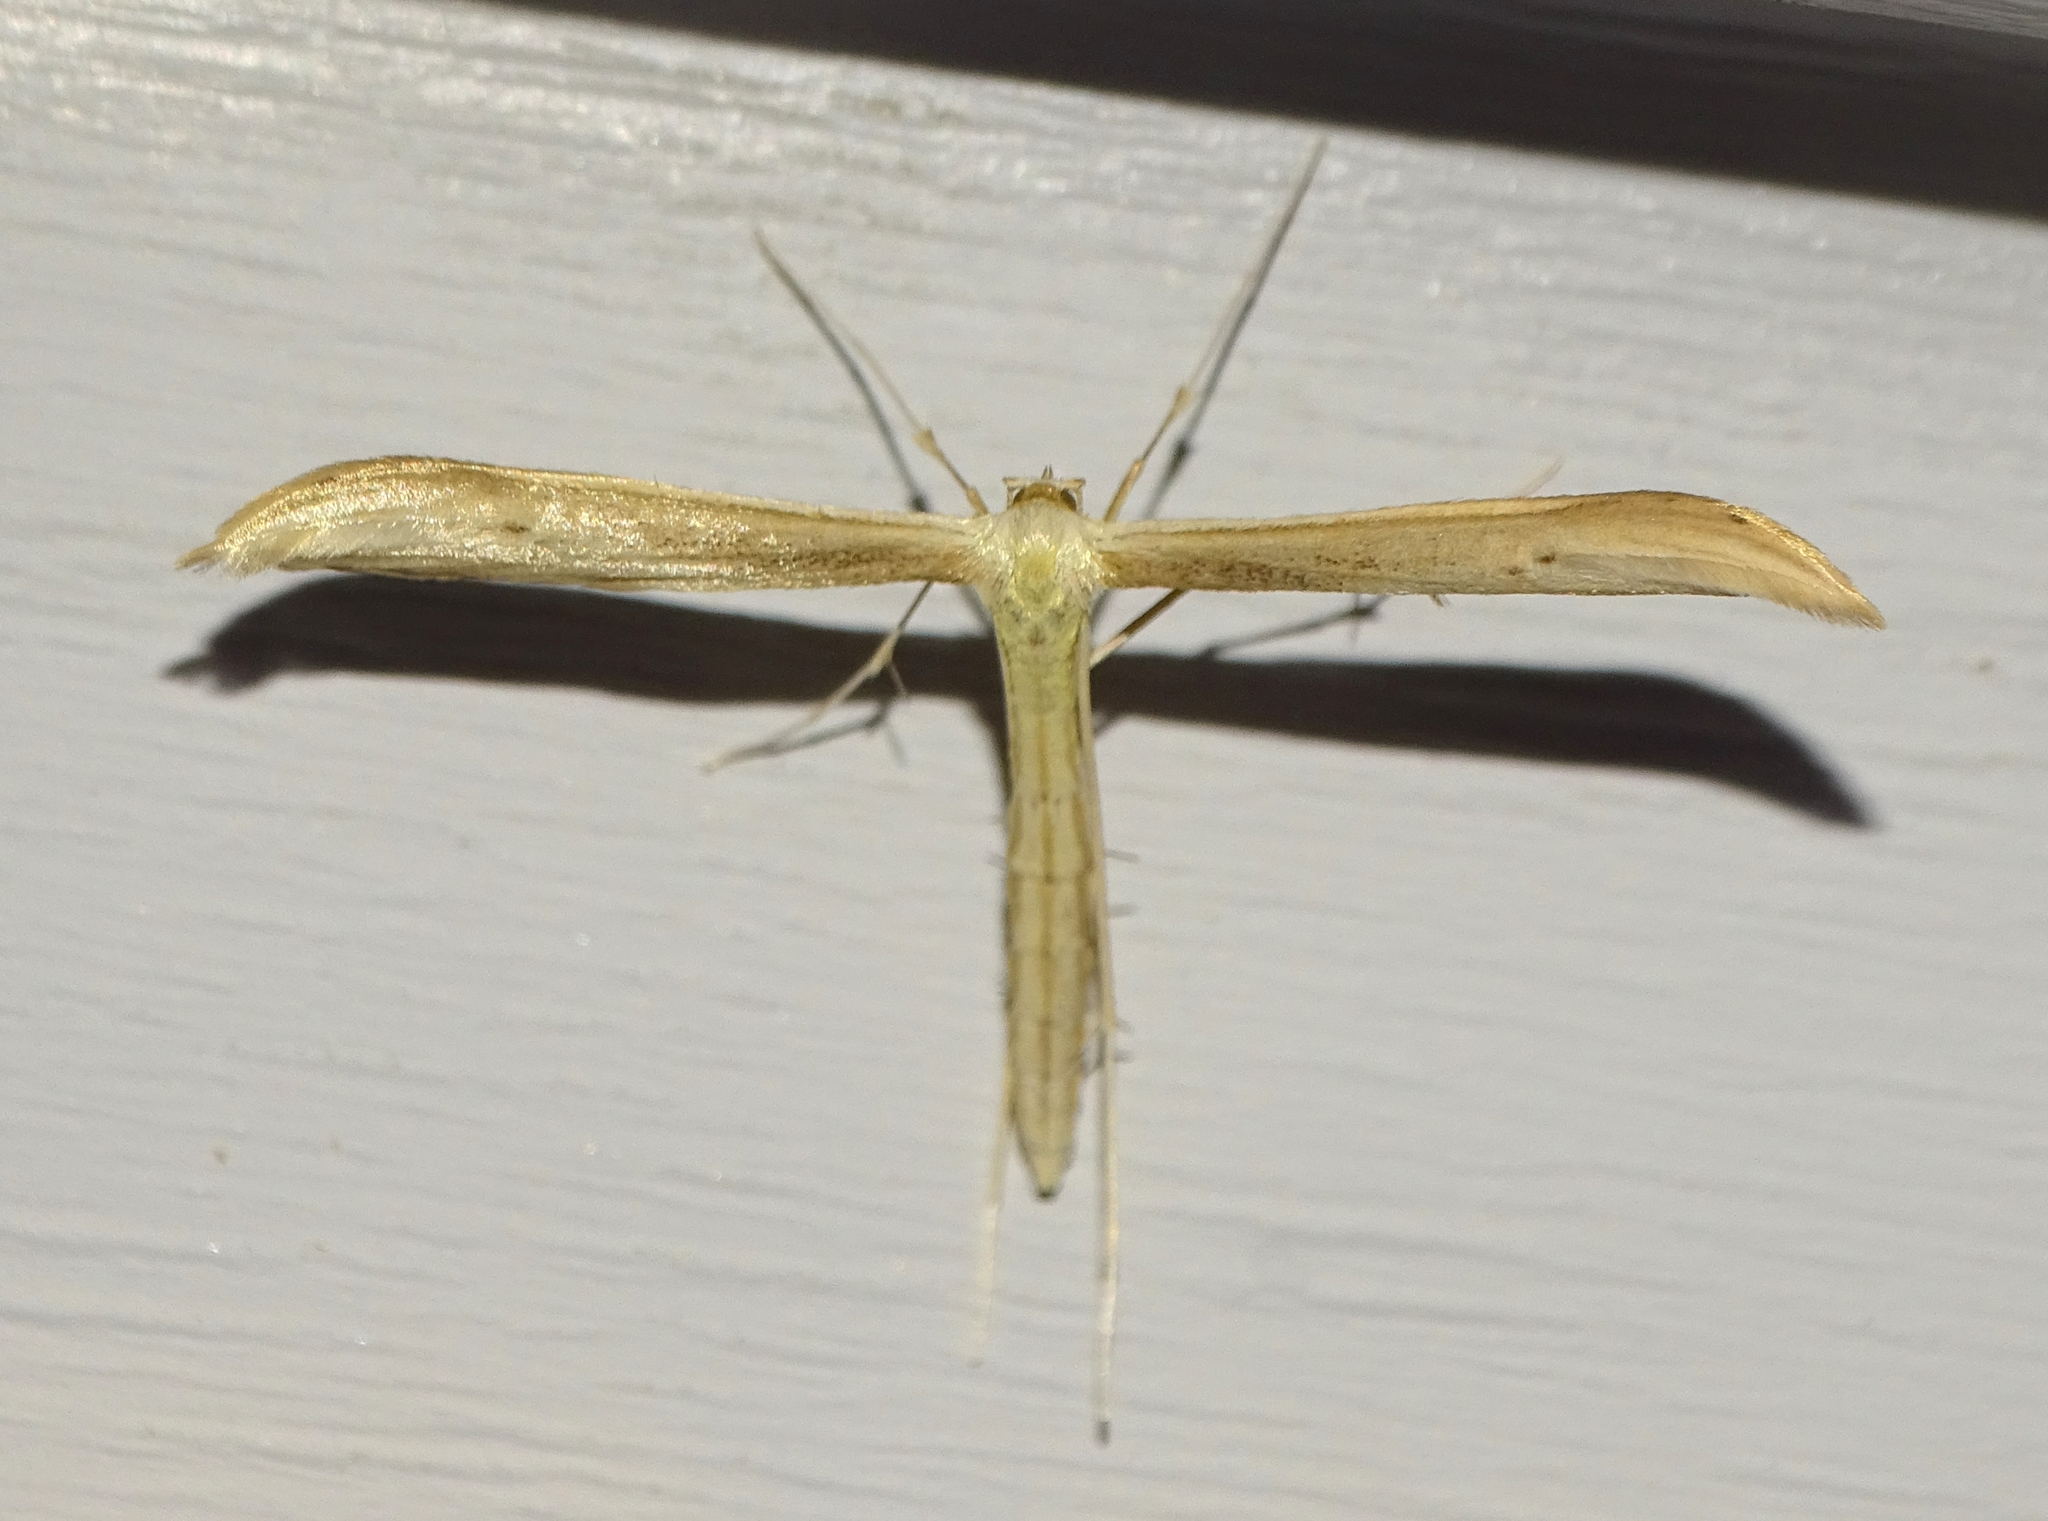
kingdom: Animalia
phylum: Arthropoda
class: Insecta
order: Lepidoptera
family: Pterophoridae
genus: Hellinsia
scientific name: Hellinsia
